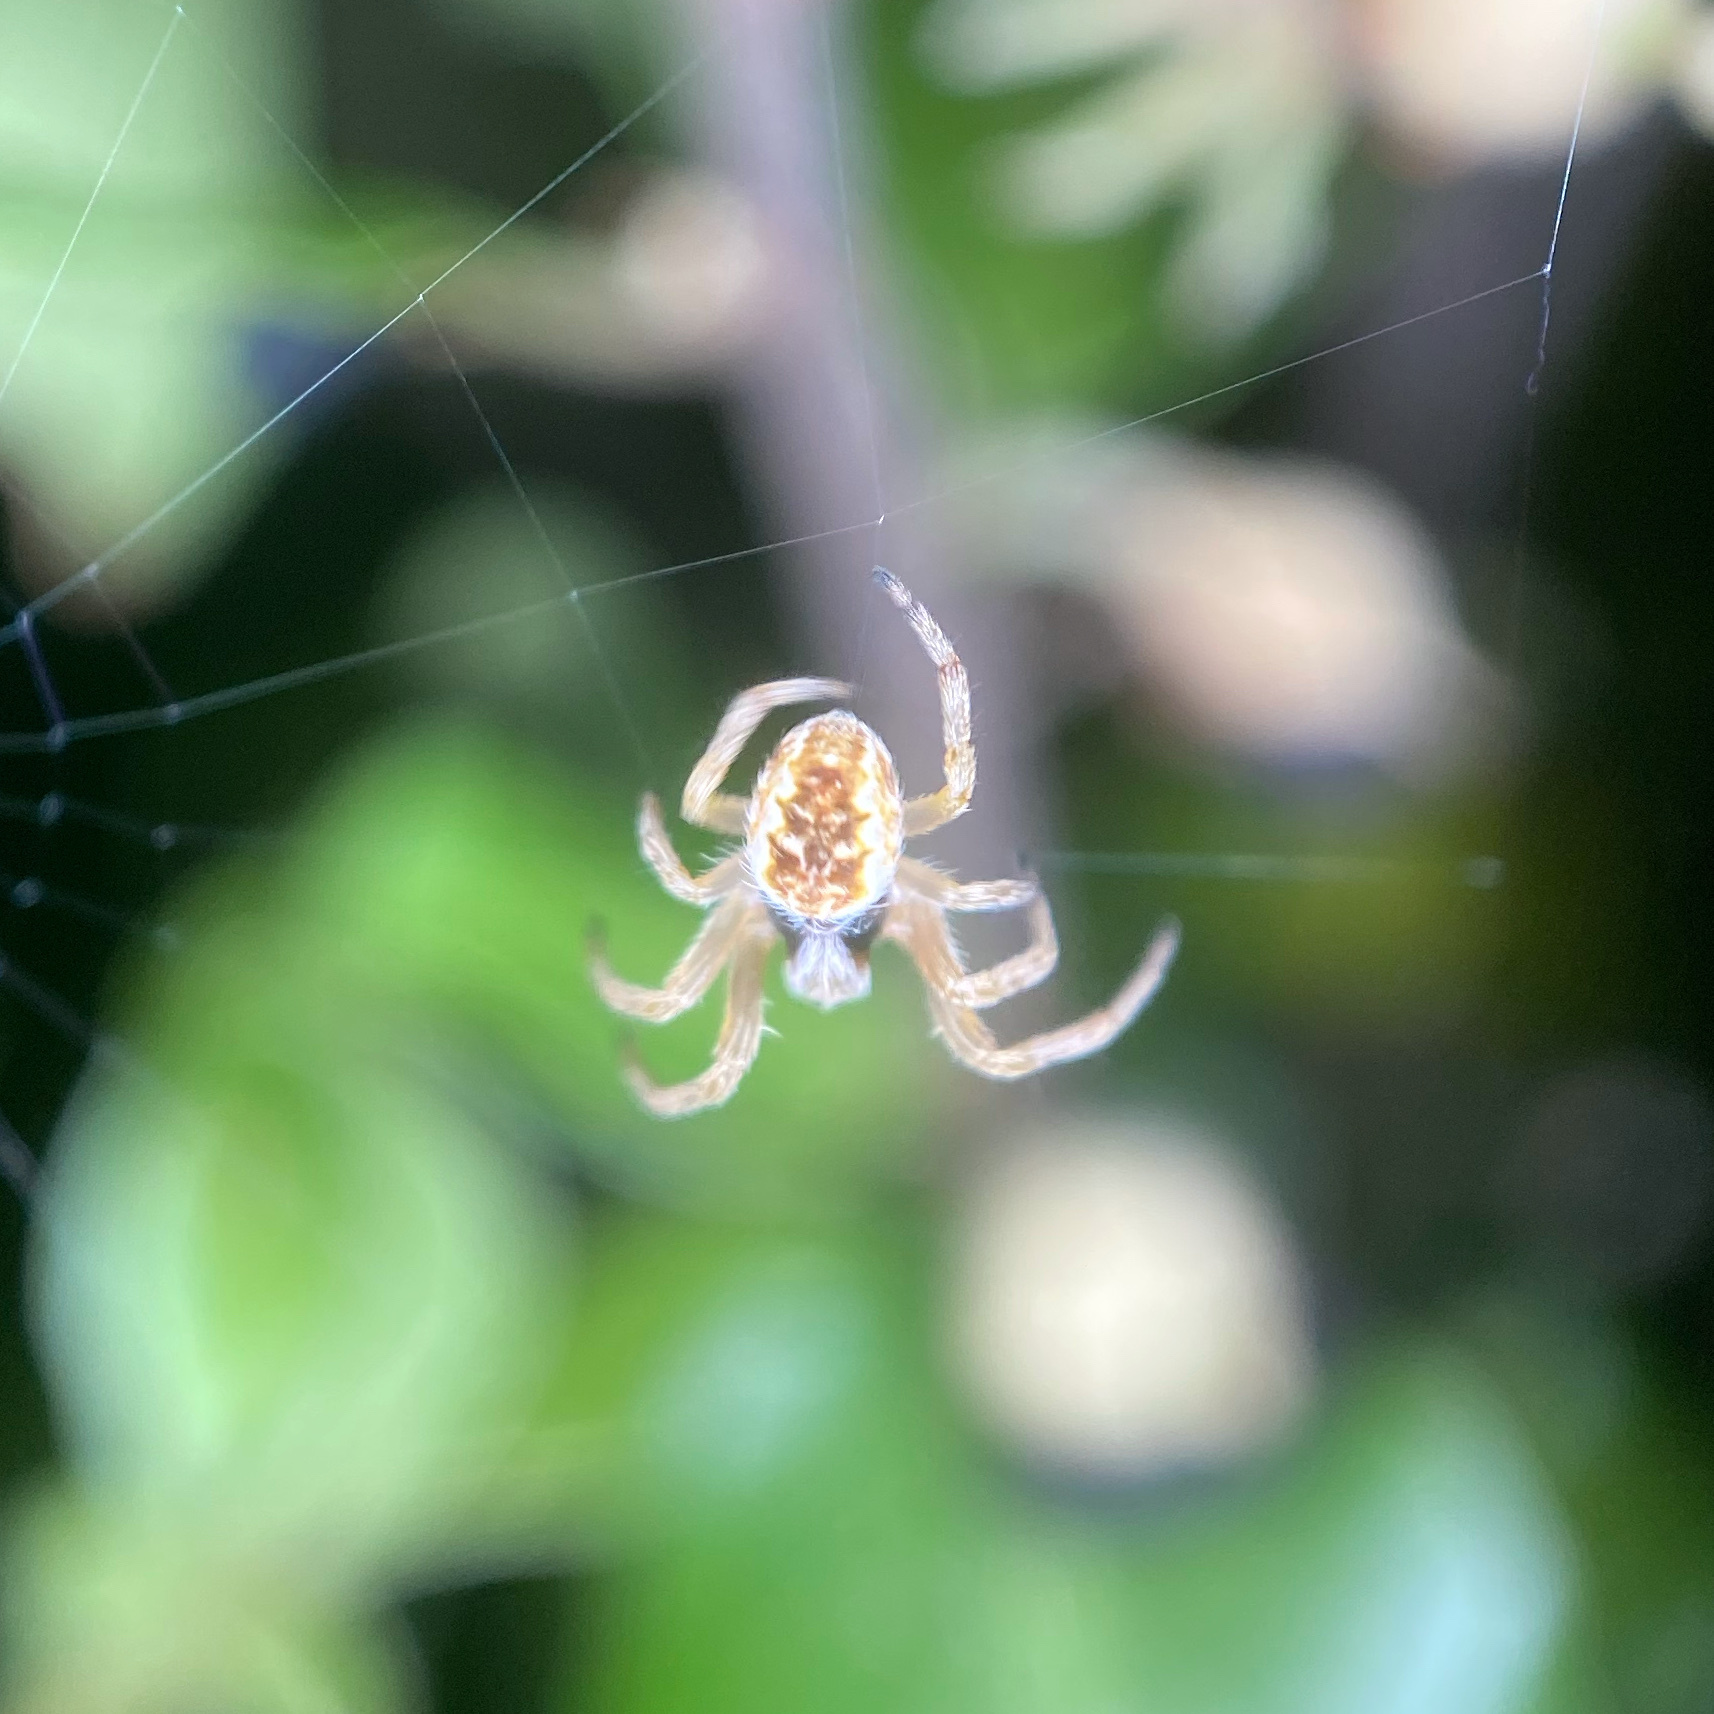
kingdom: Animalia
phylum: Arthropoda
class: Arachnida
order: Araneae
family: Araneidae
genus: Salsa
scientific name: Salsa fuliginata
